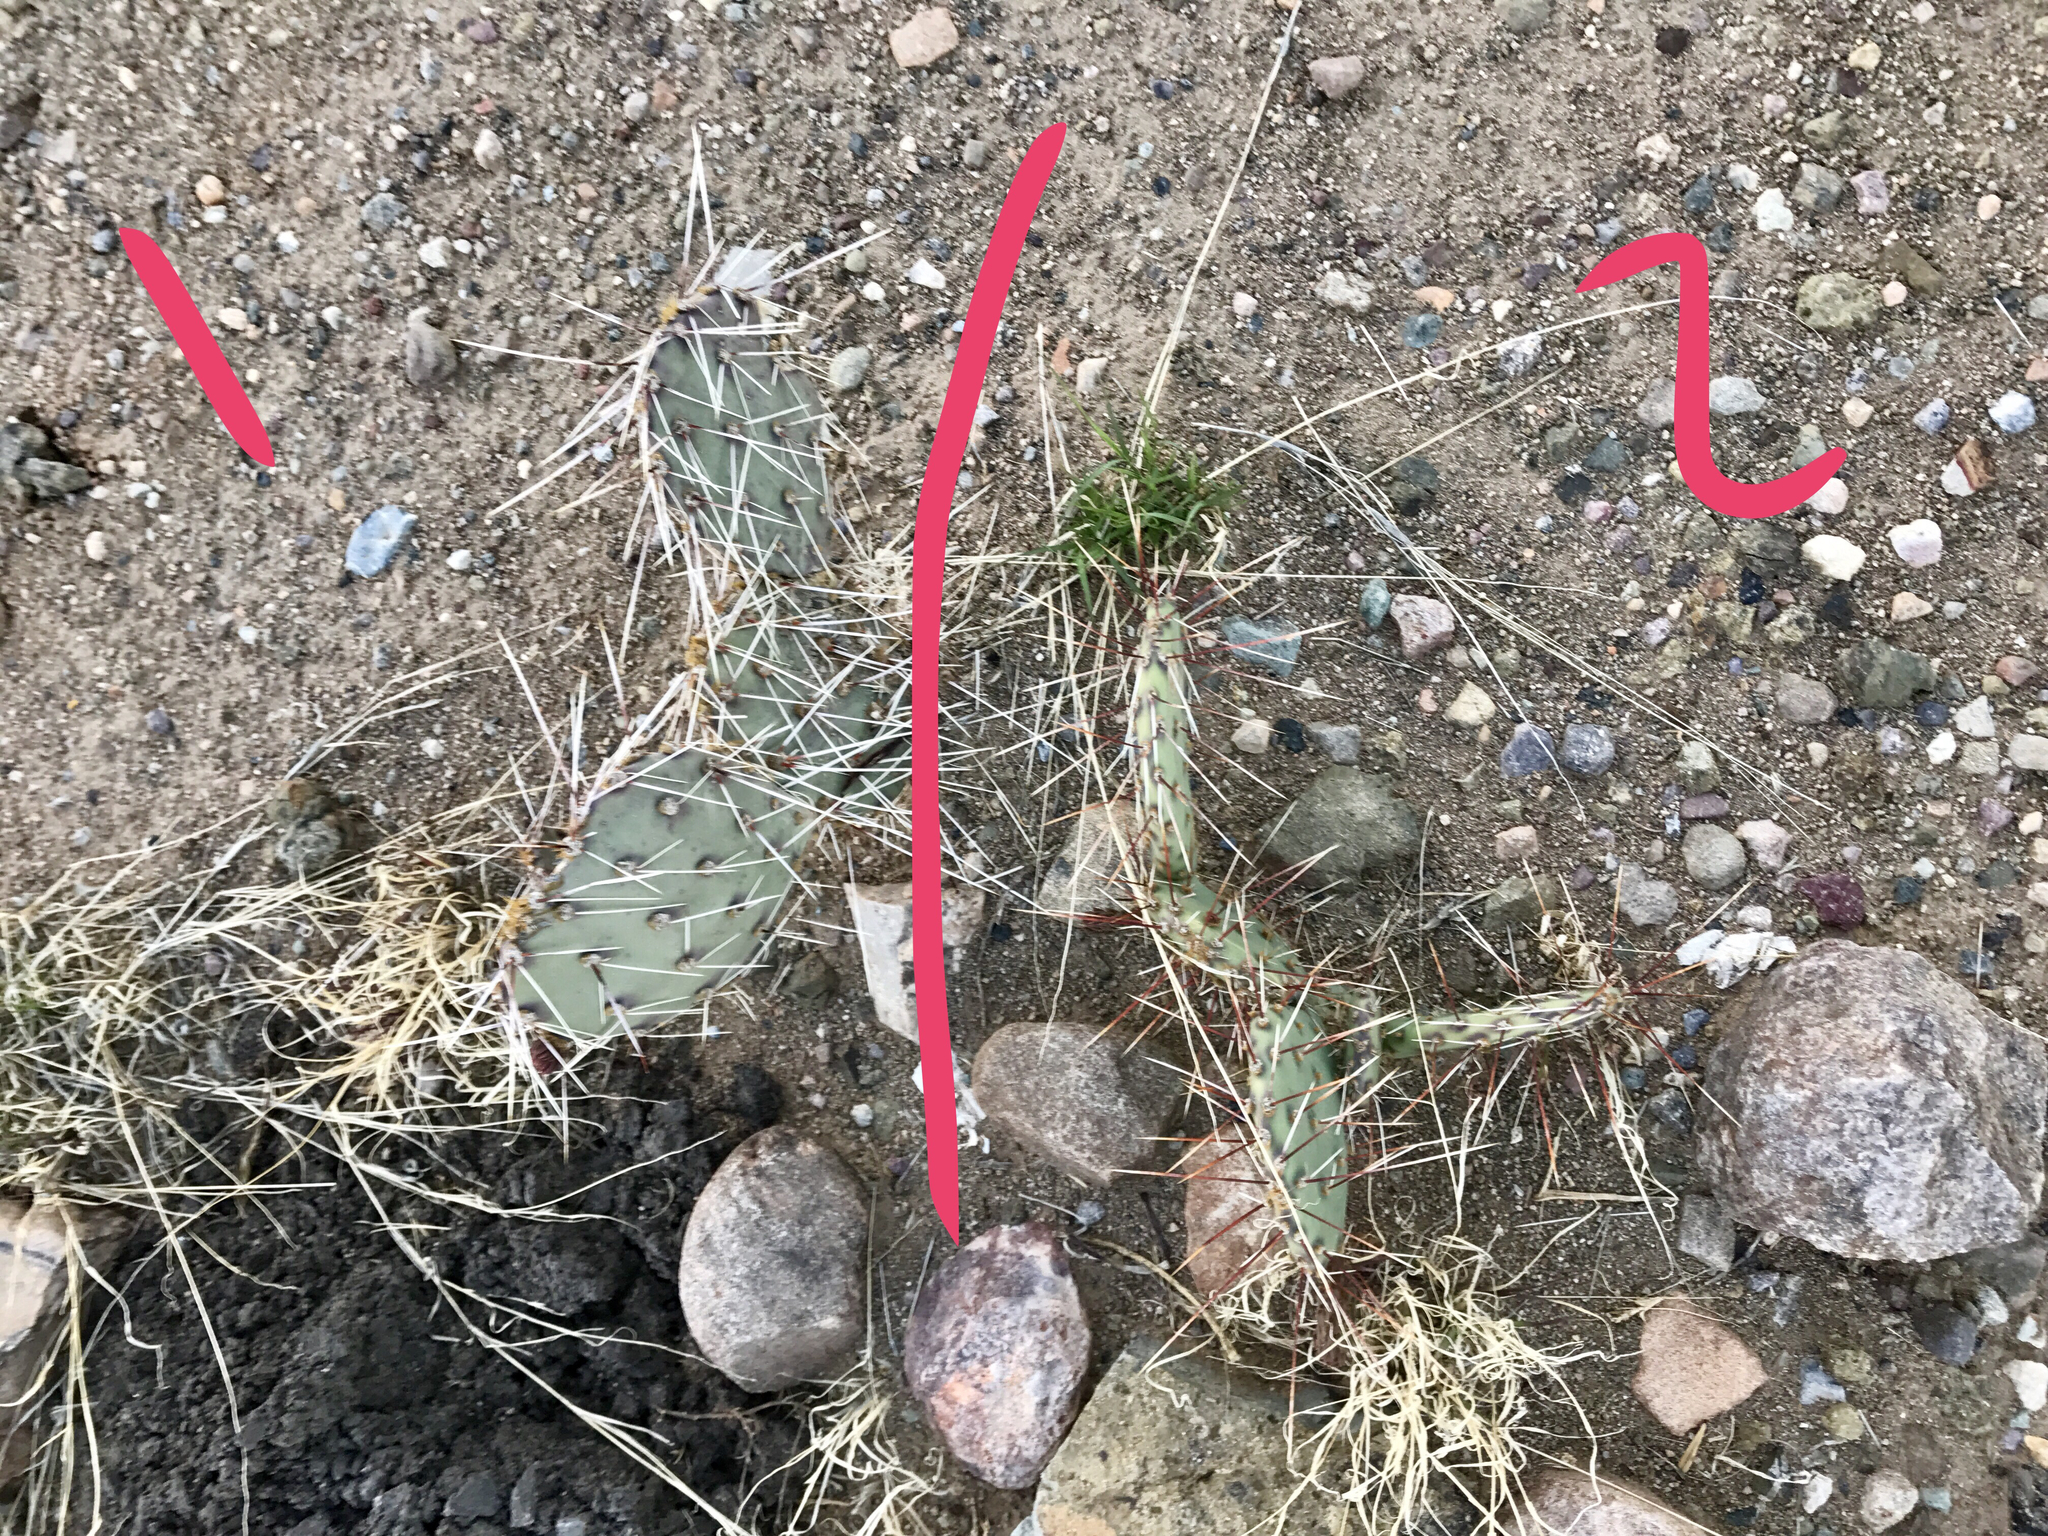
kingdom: Plantae
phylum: Tracheophyta
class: Magnoliopsida
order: Caryophyllales
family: Cactaceae
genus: Opuntia
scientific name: Opuntia phaeacantha
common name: New mexico prickly-pear
